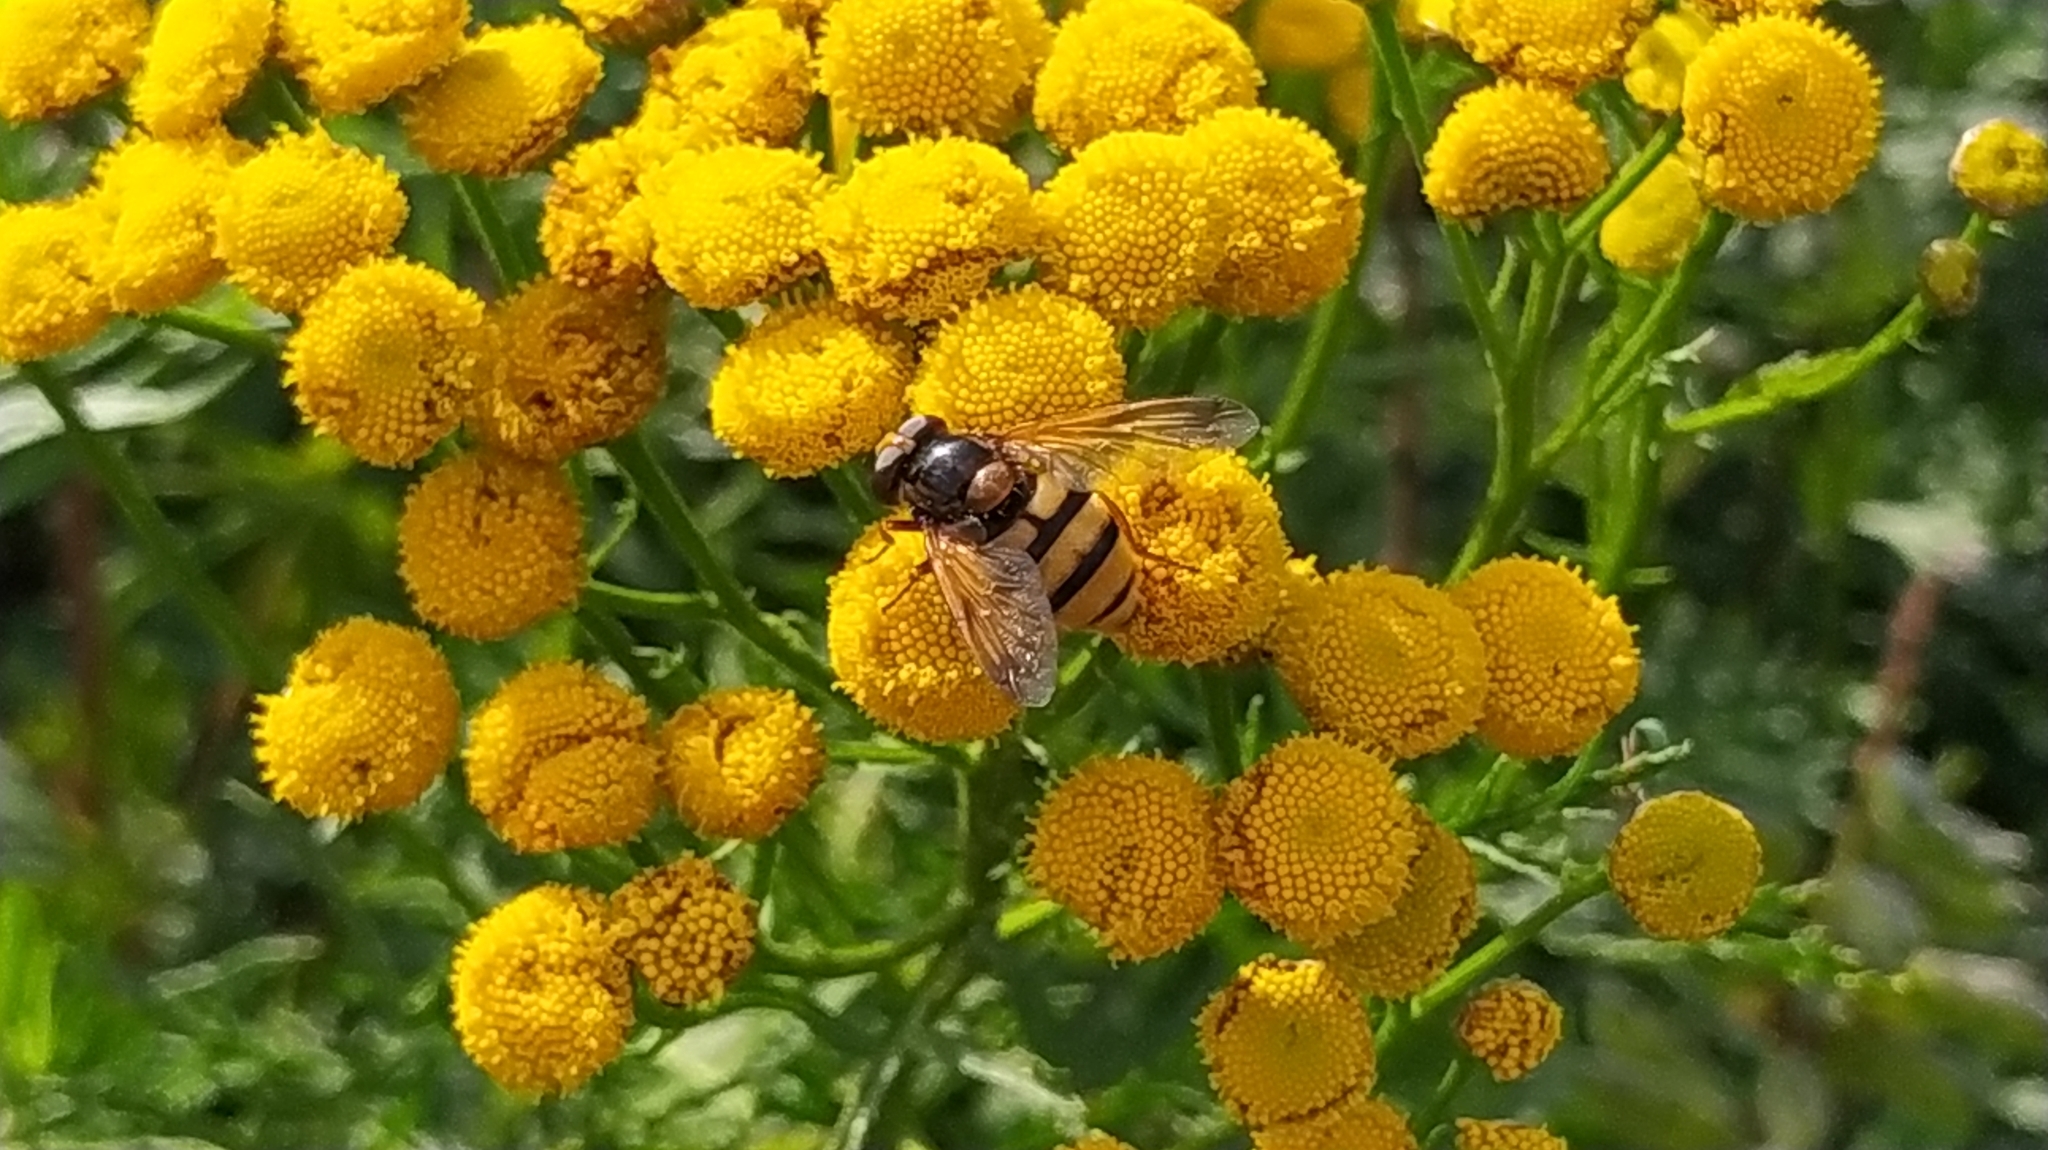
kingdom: Animalia
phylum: Arthropoda
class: Insecta
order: Diptera
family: Syrphidae
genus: Volucella
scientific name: Volucella inanis
